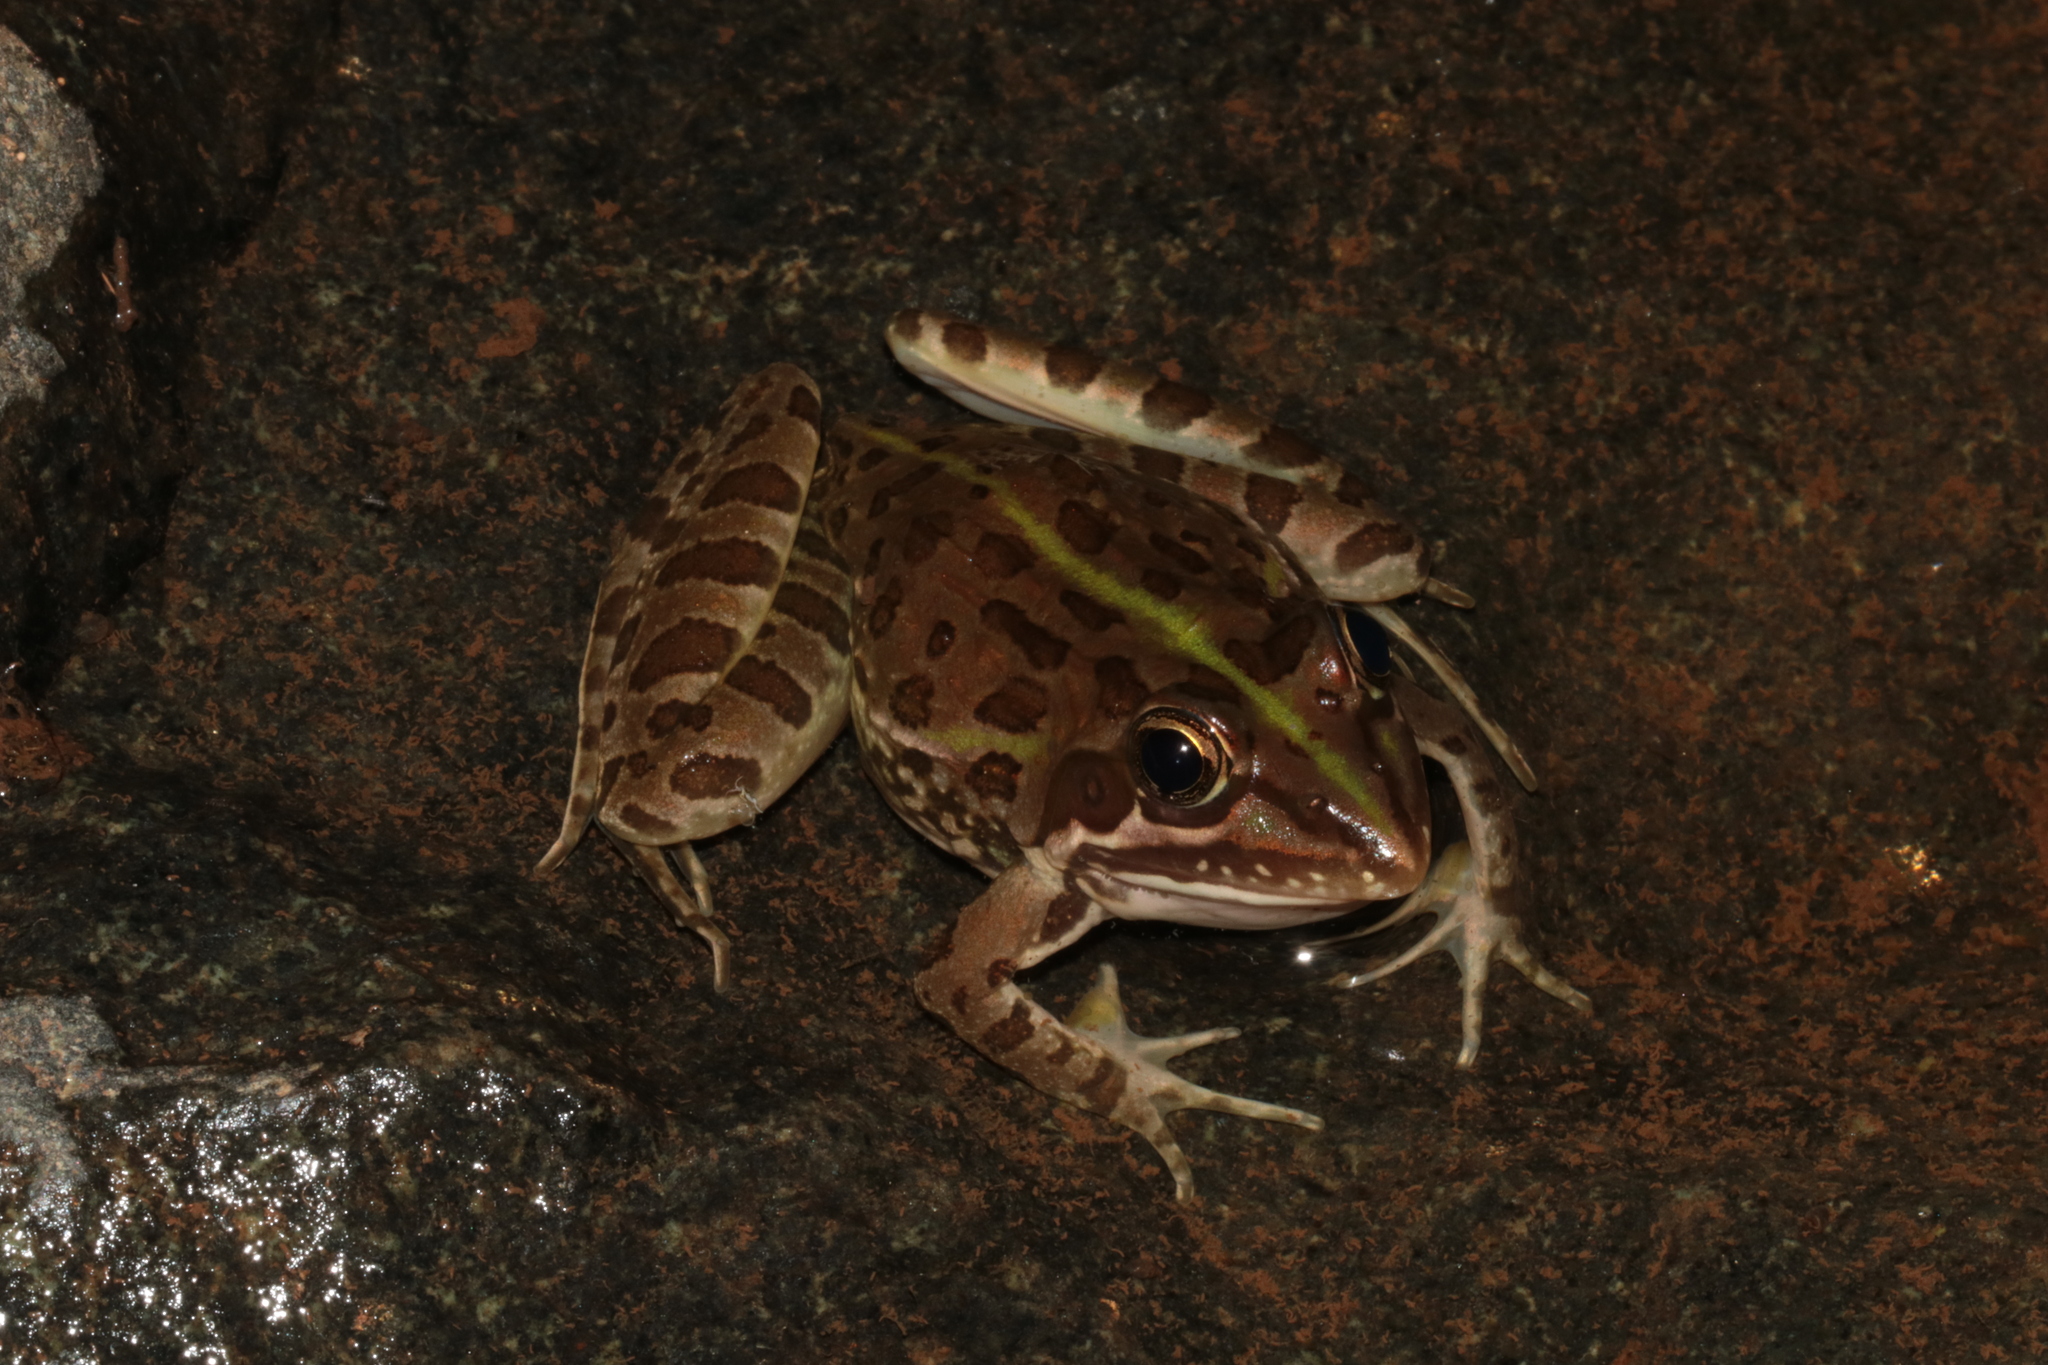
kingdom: Animalia
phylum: Chordata
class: Amphibia
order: Anura
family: Pyxicephalidae
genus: Amietia
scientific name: Amietia delalandii
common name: Delalande's river frog
